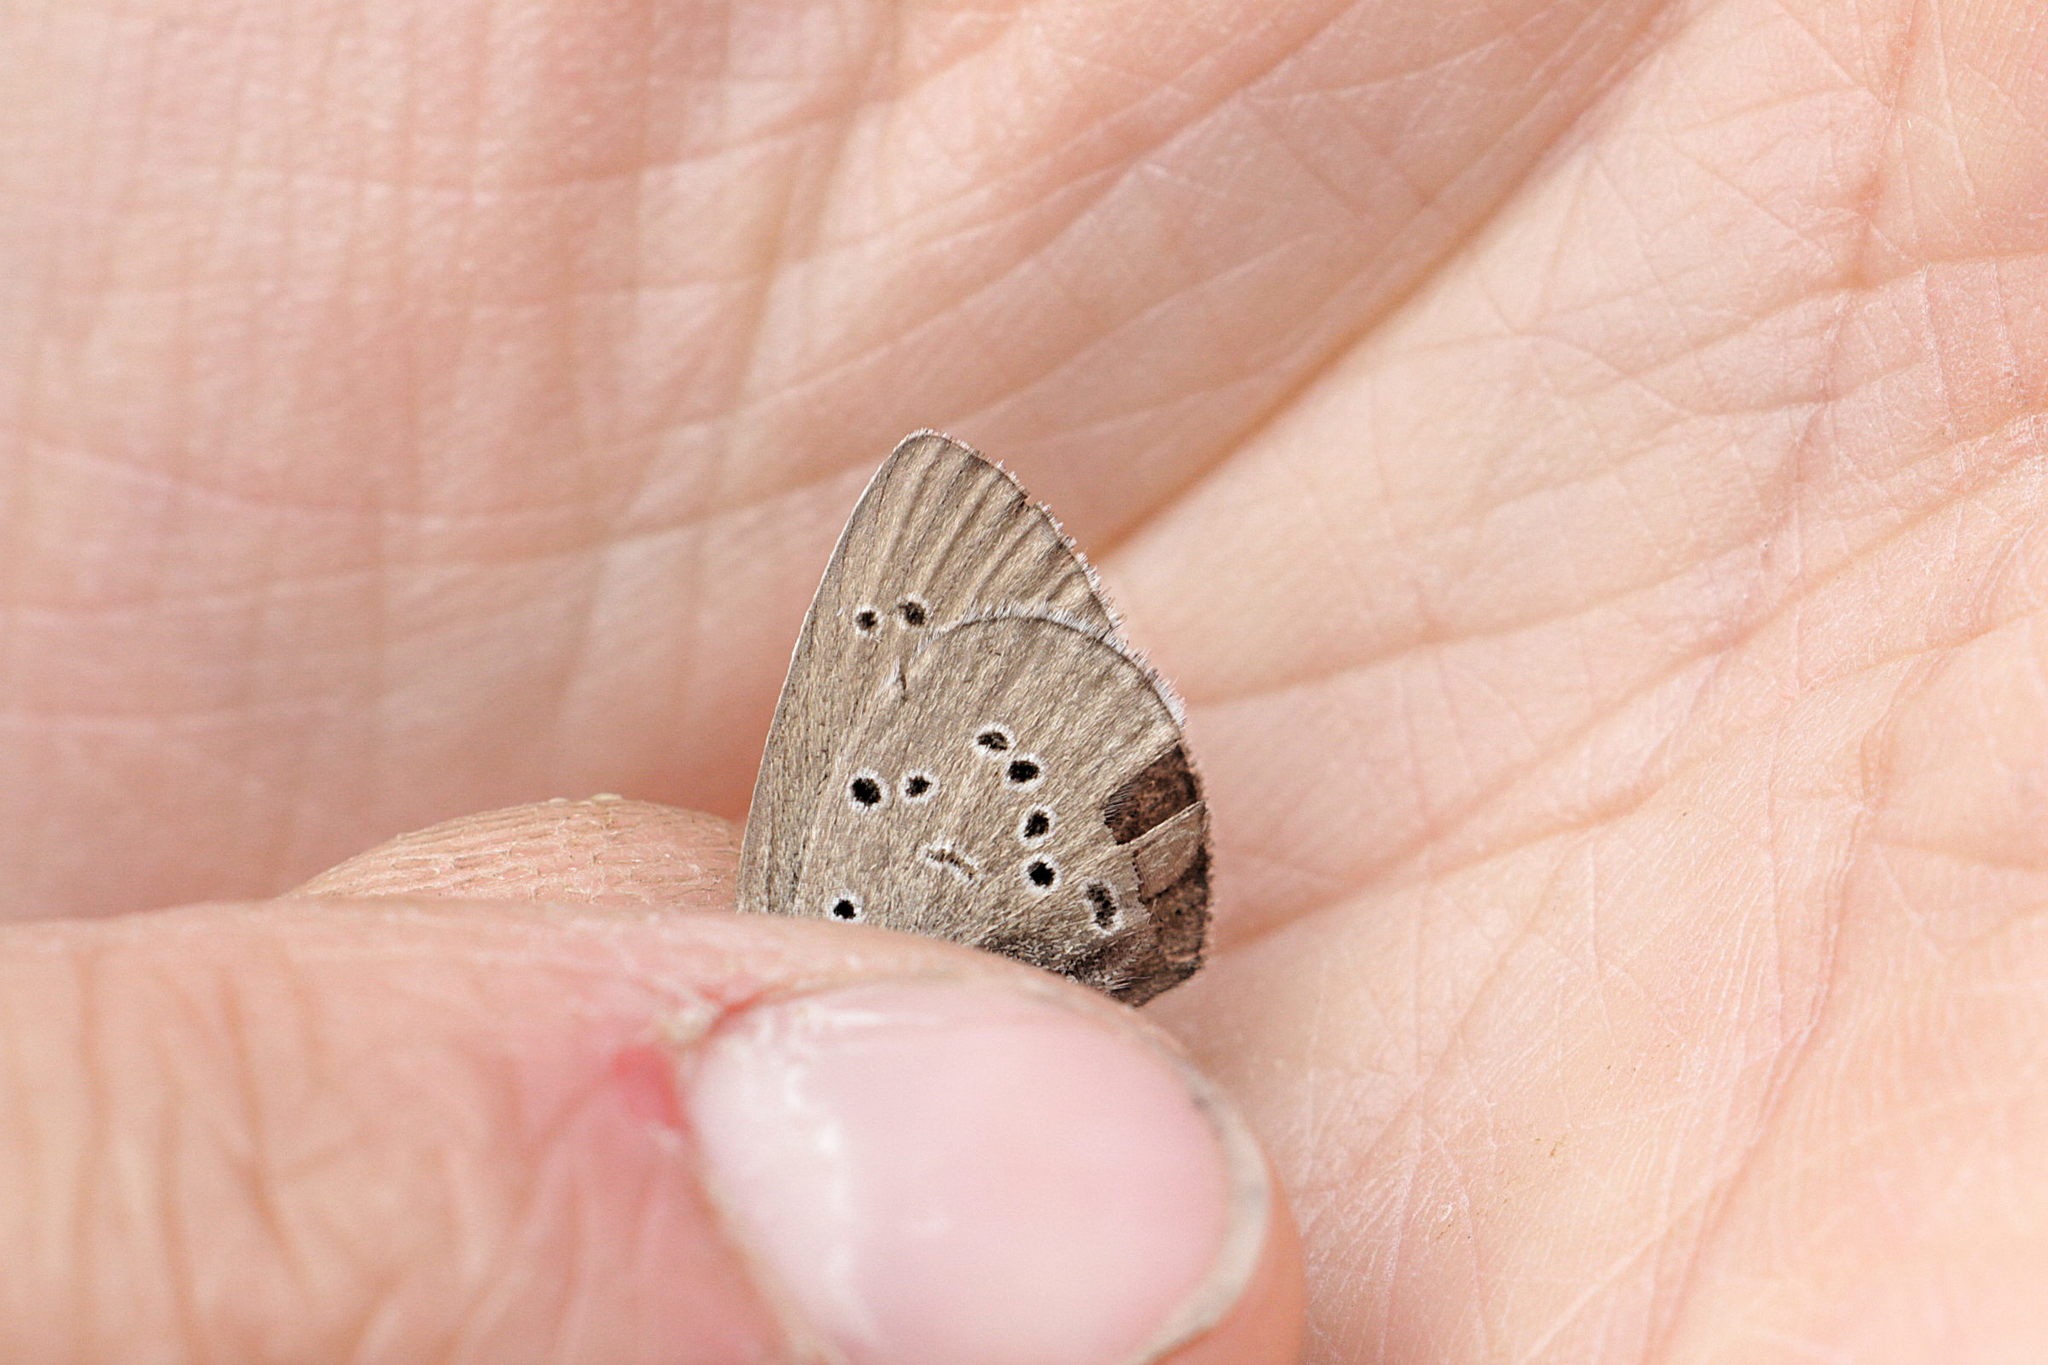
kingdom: Animalia
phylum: Arthropoda
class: Insecta
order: Lepidoptera
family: Lycaenidae
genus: Cyaniris
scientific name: Cyaniris semiargus
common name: Mazarine blue
